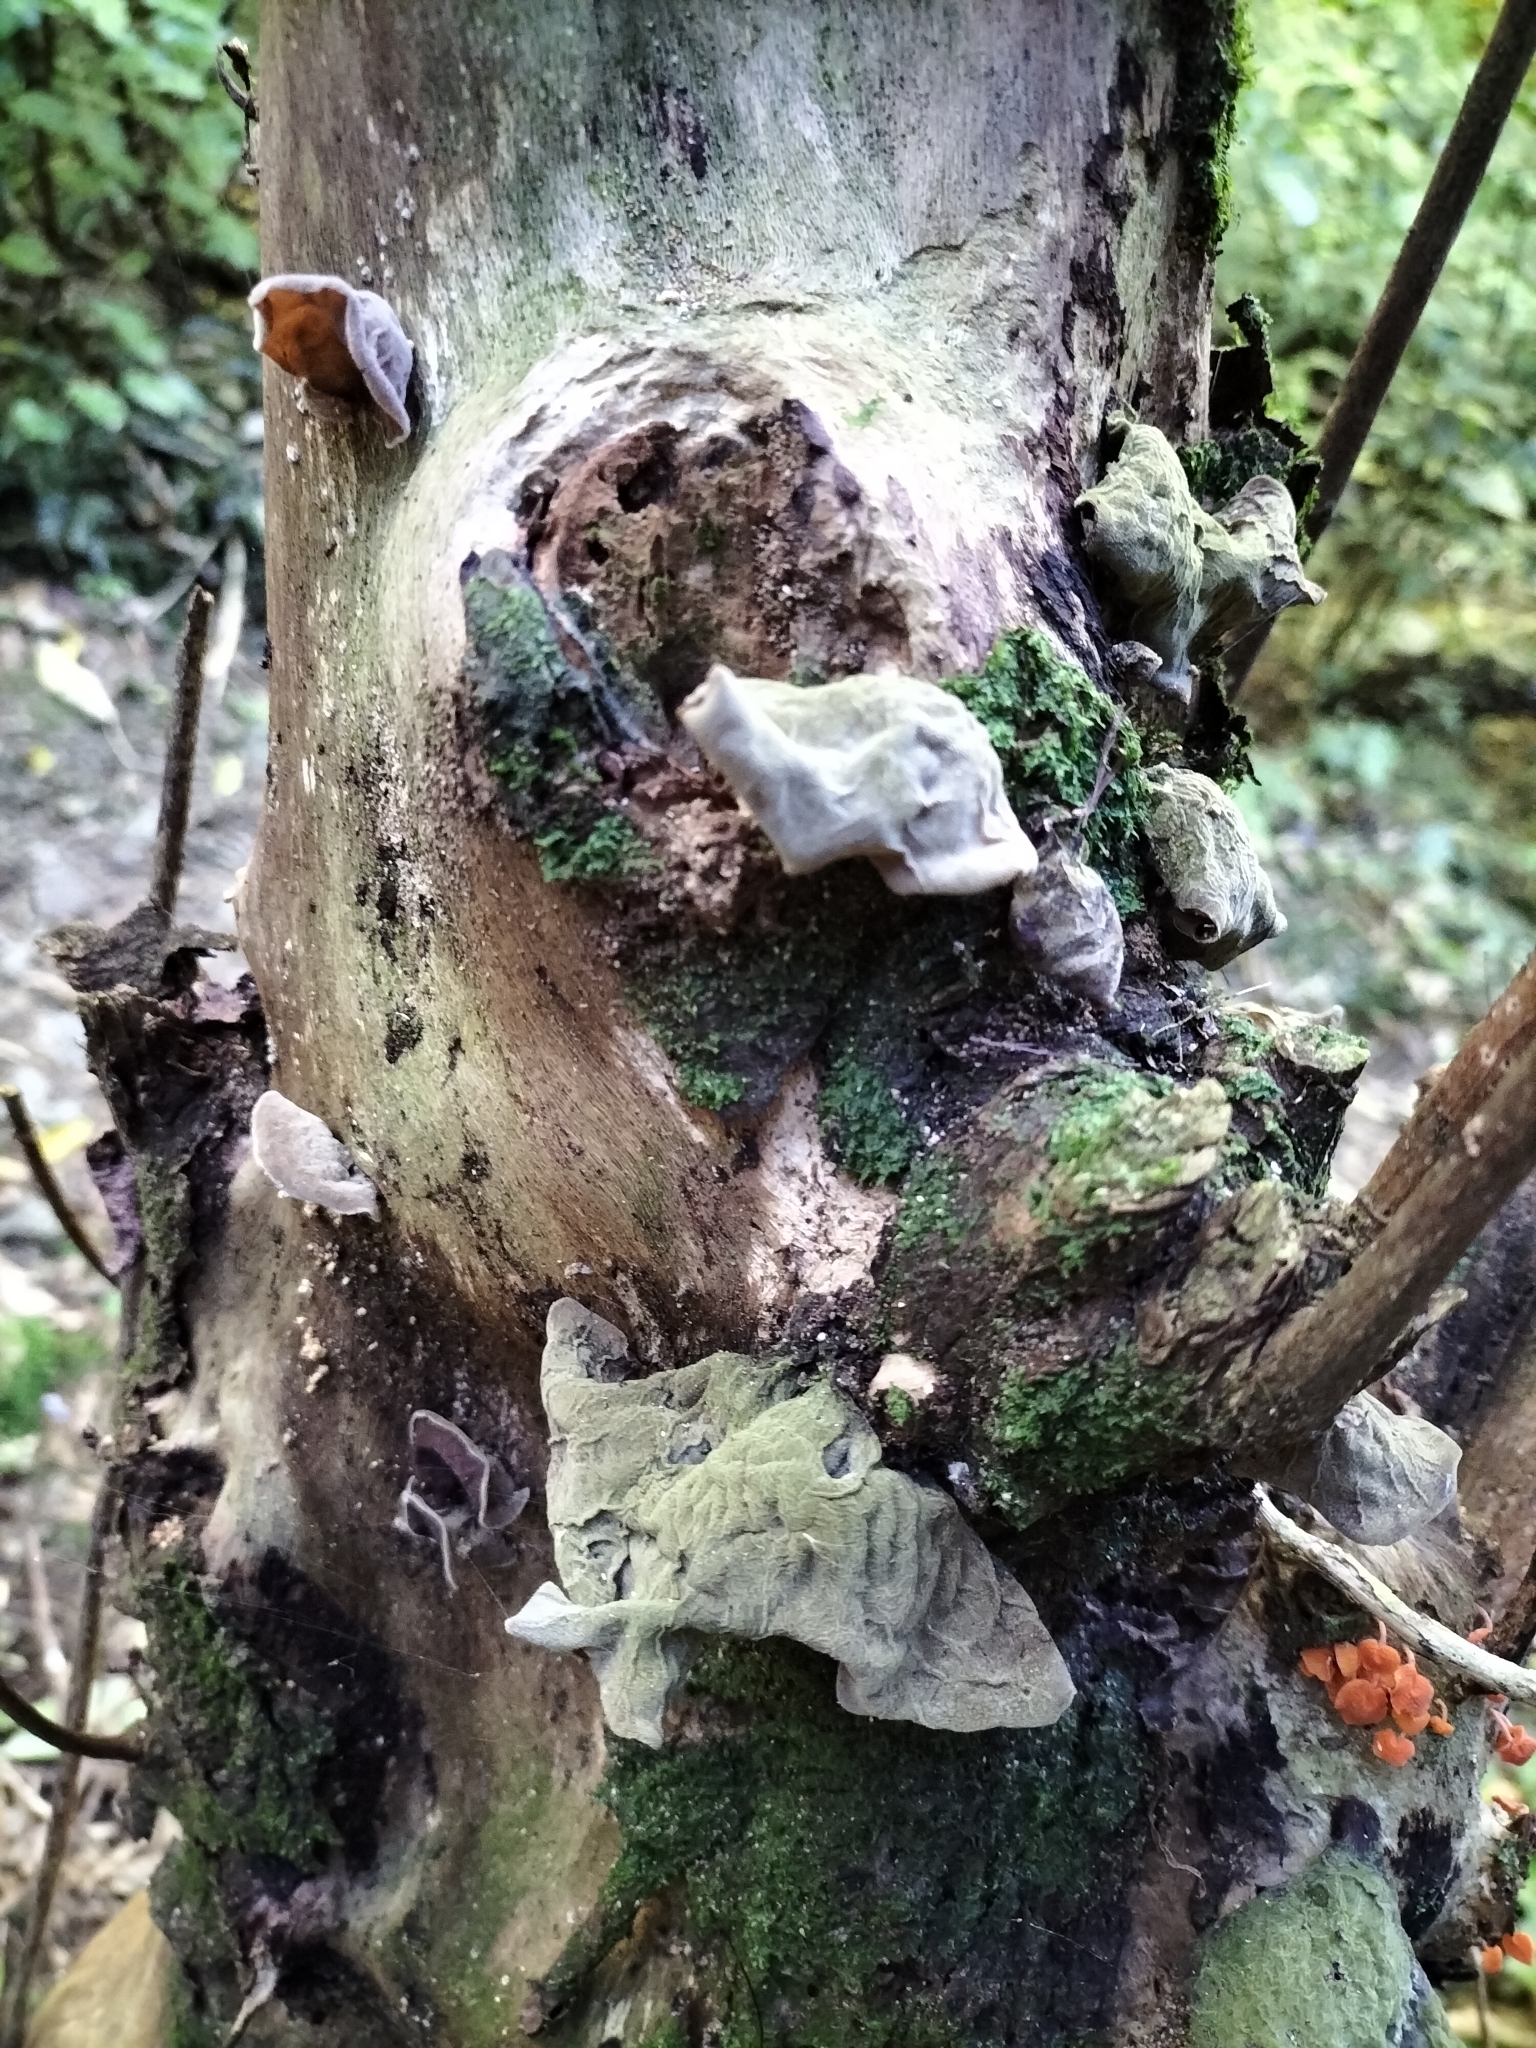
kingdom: Fungi
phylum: Basidiomycota
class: Agaricomycetes
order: Auriculariales
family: Auriculariaceae
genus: Auricularia
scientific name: Auricularia cornea
